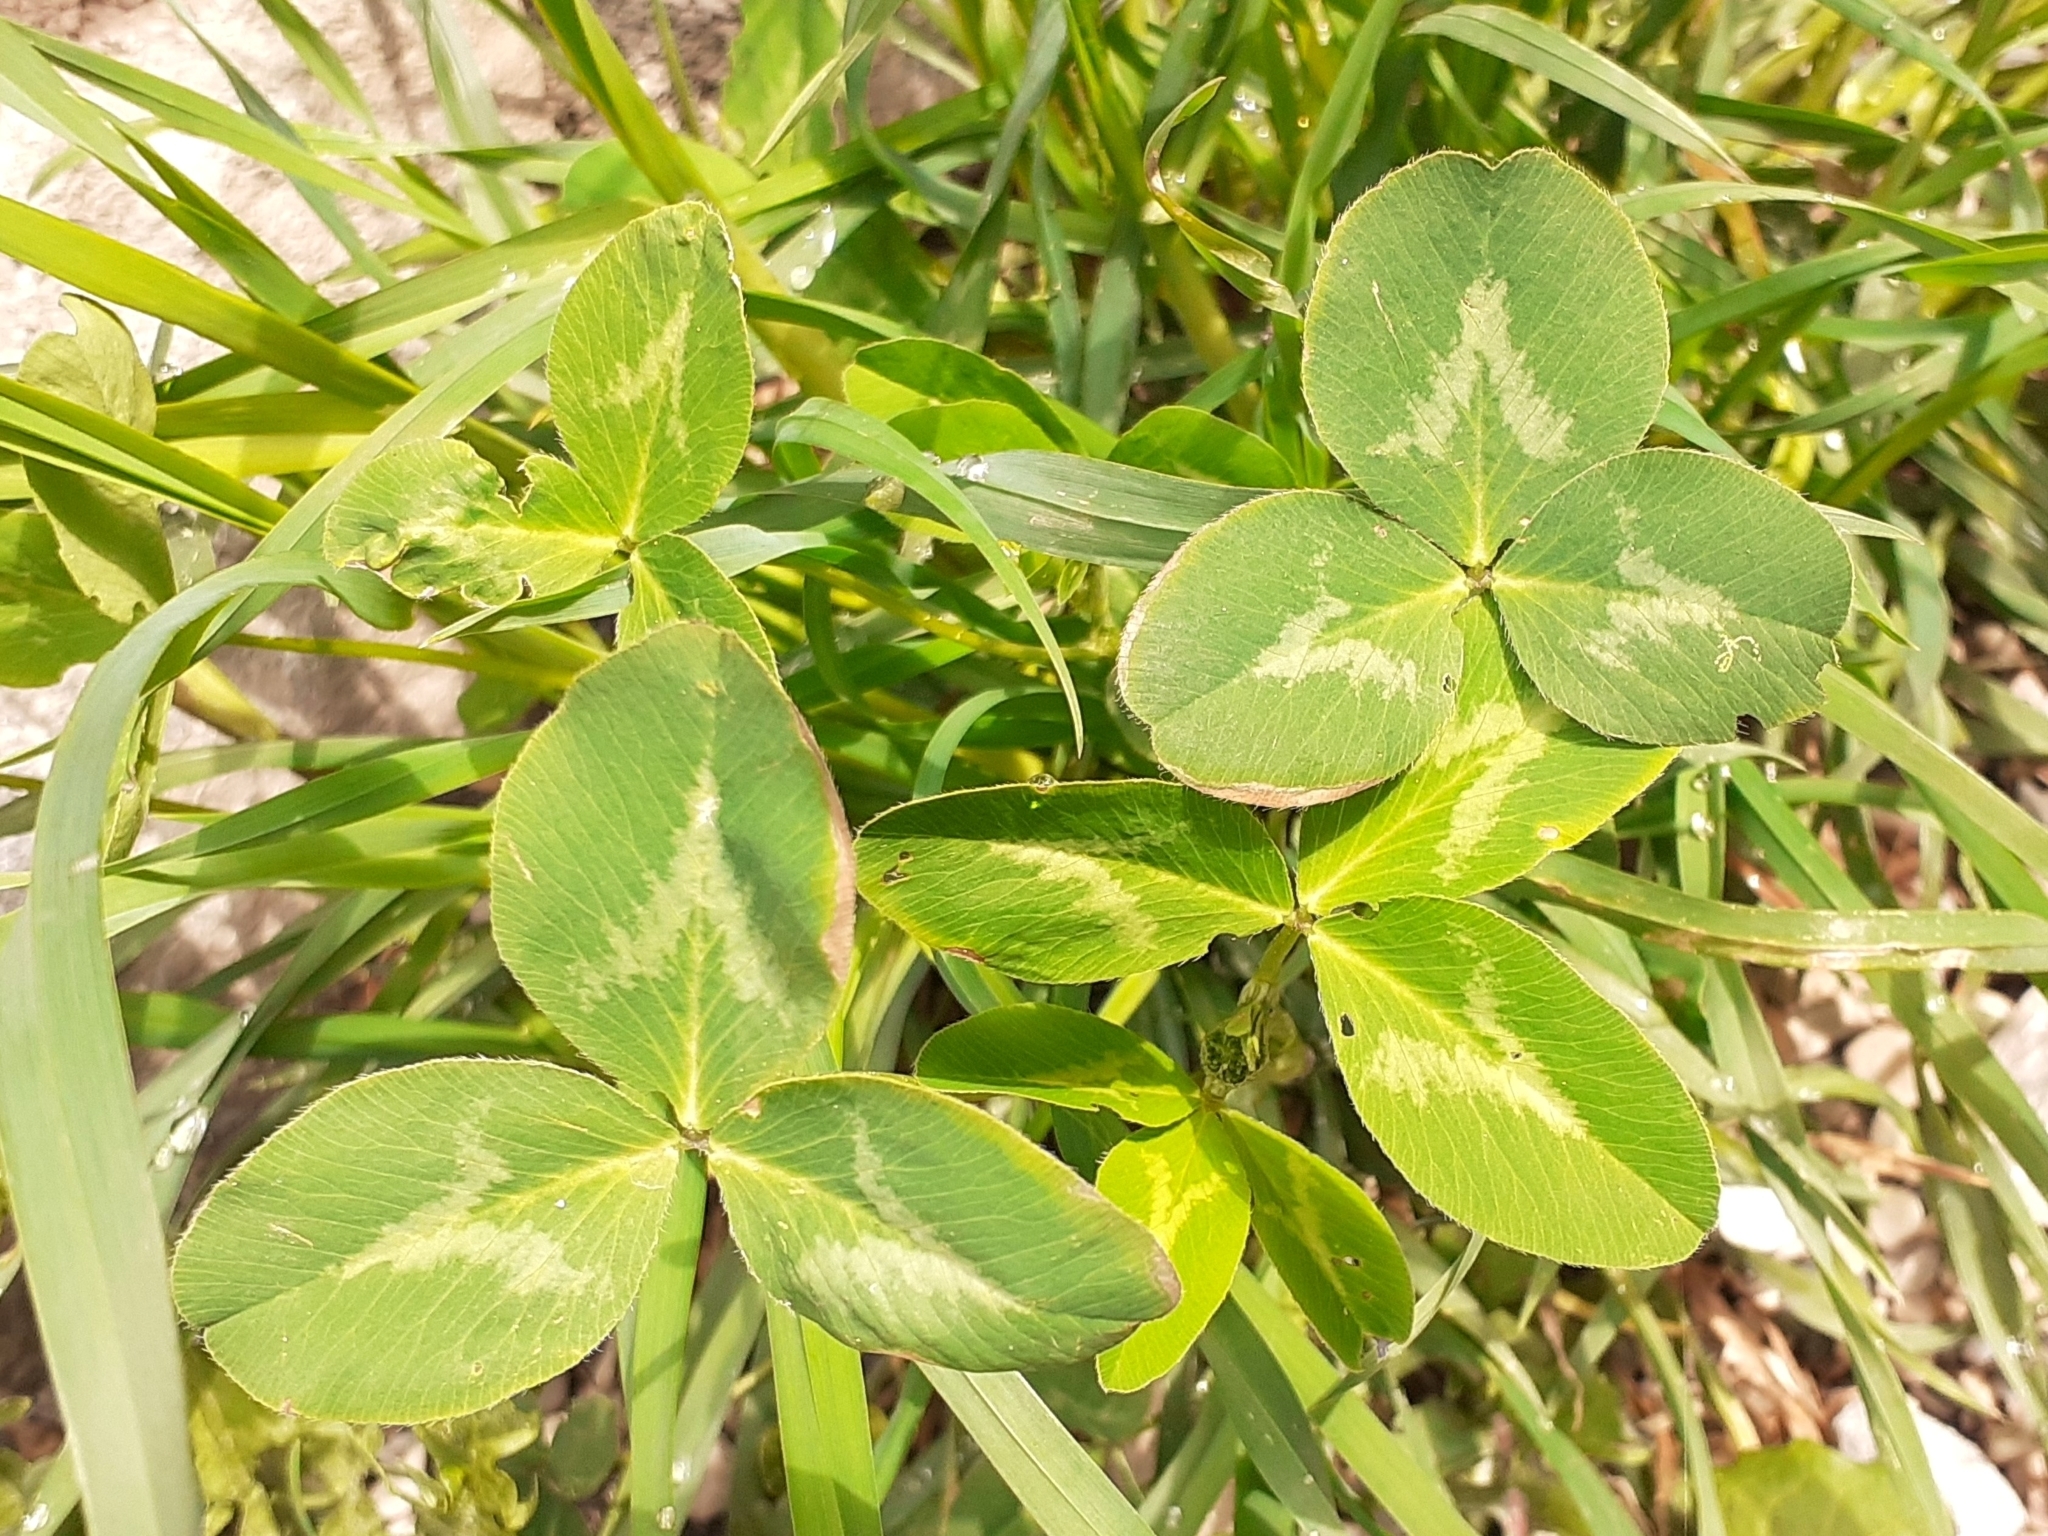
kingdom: Plantae
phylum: Tracheophyta
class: Magnoliopsida
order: Fabales
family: Fabaceae
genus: Trifolium
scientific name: Trifolium repens
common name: White clover
